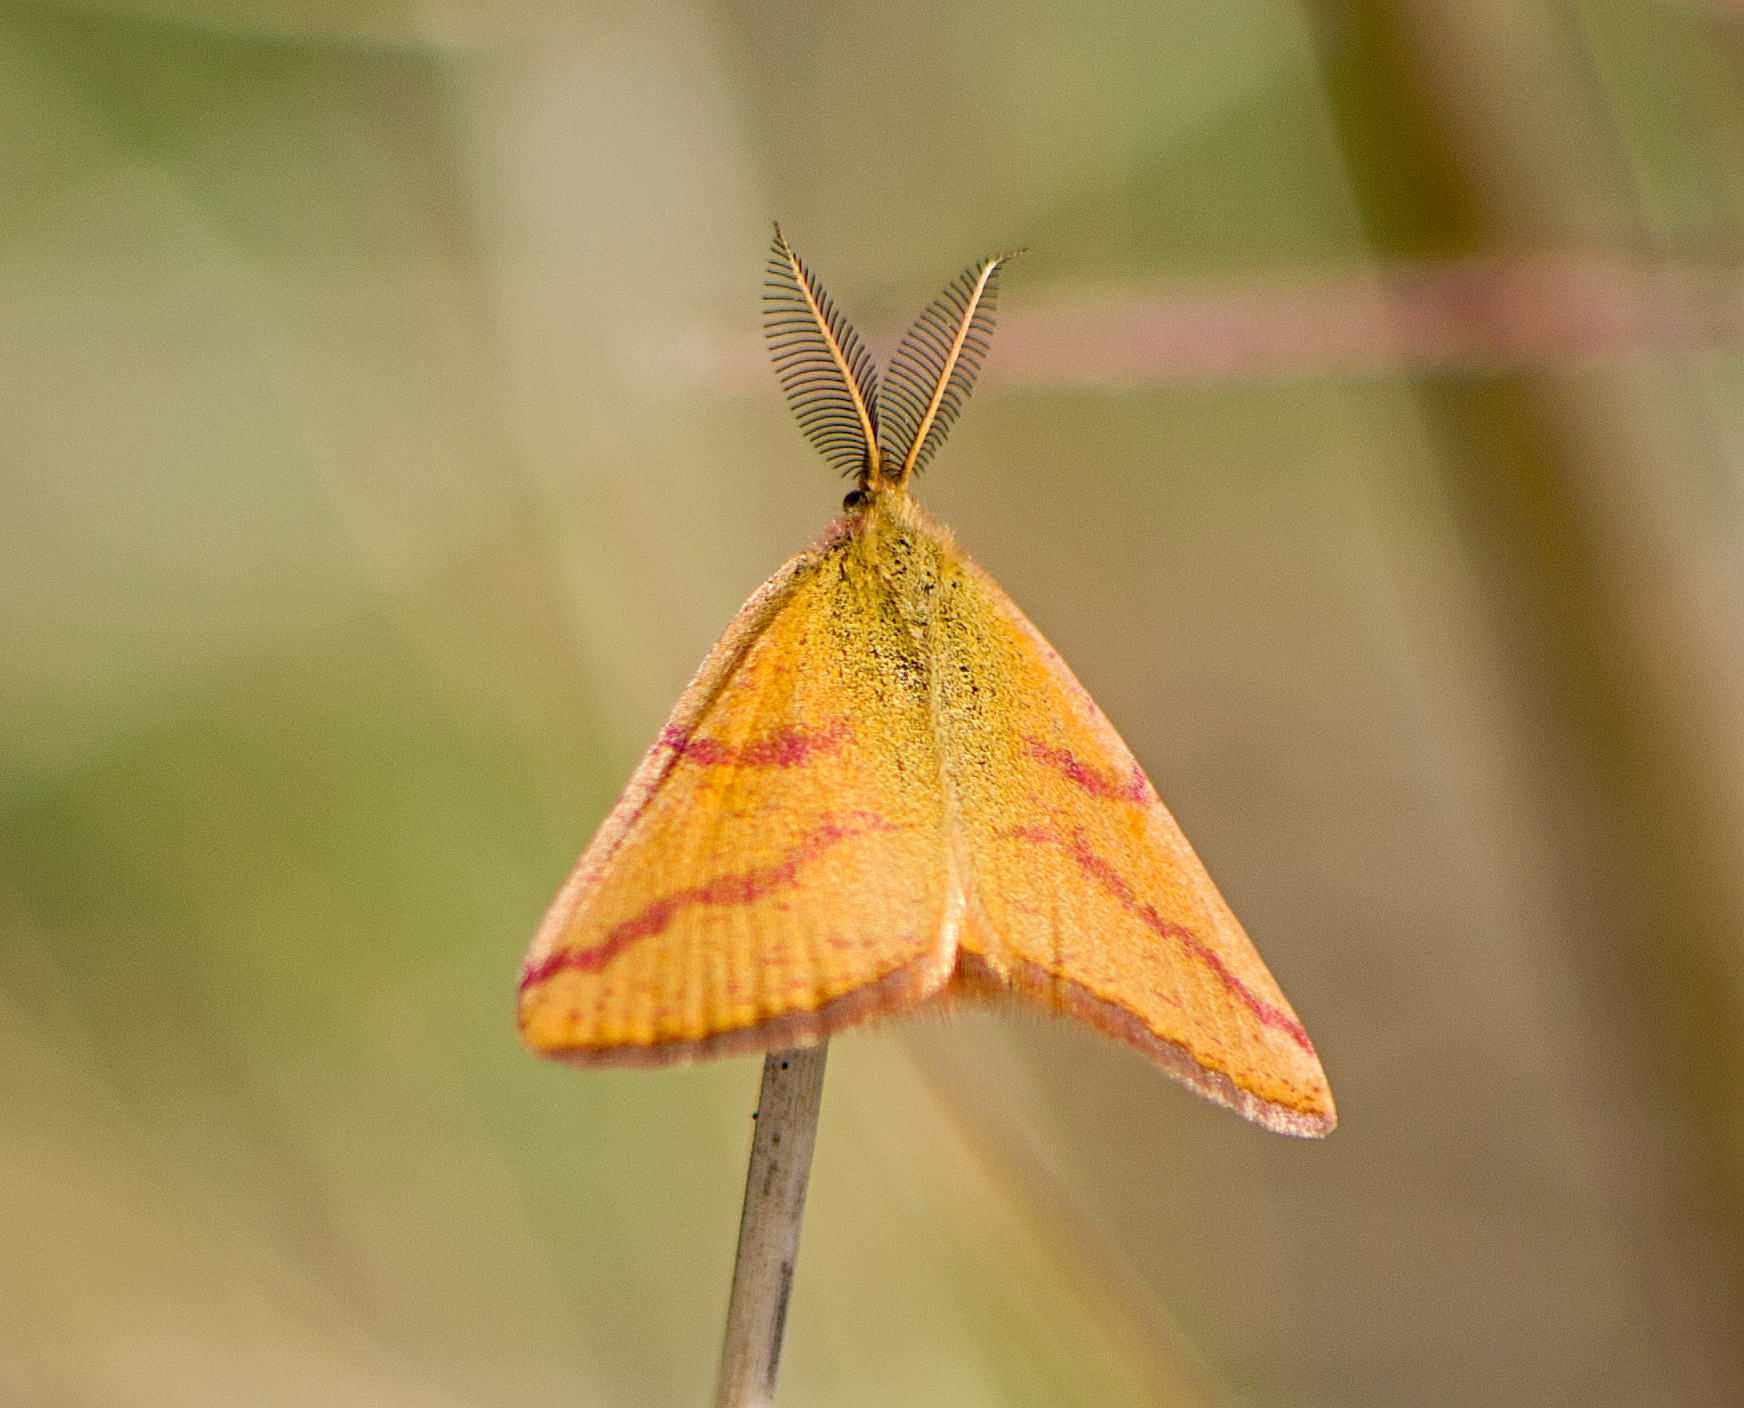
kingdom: Animalia
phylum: Arthropoda
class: Insecta
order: Lepidoptera
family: Geometridae
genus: Lythria
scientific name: Lythria purpuraria
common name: Purple-barred yellow
